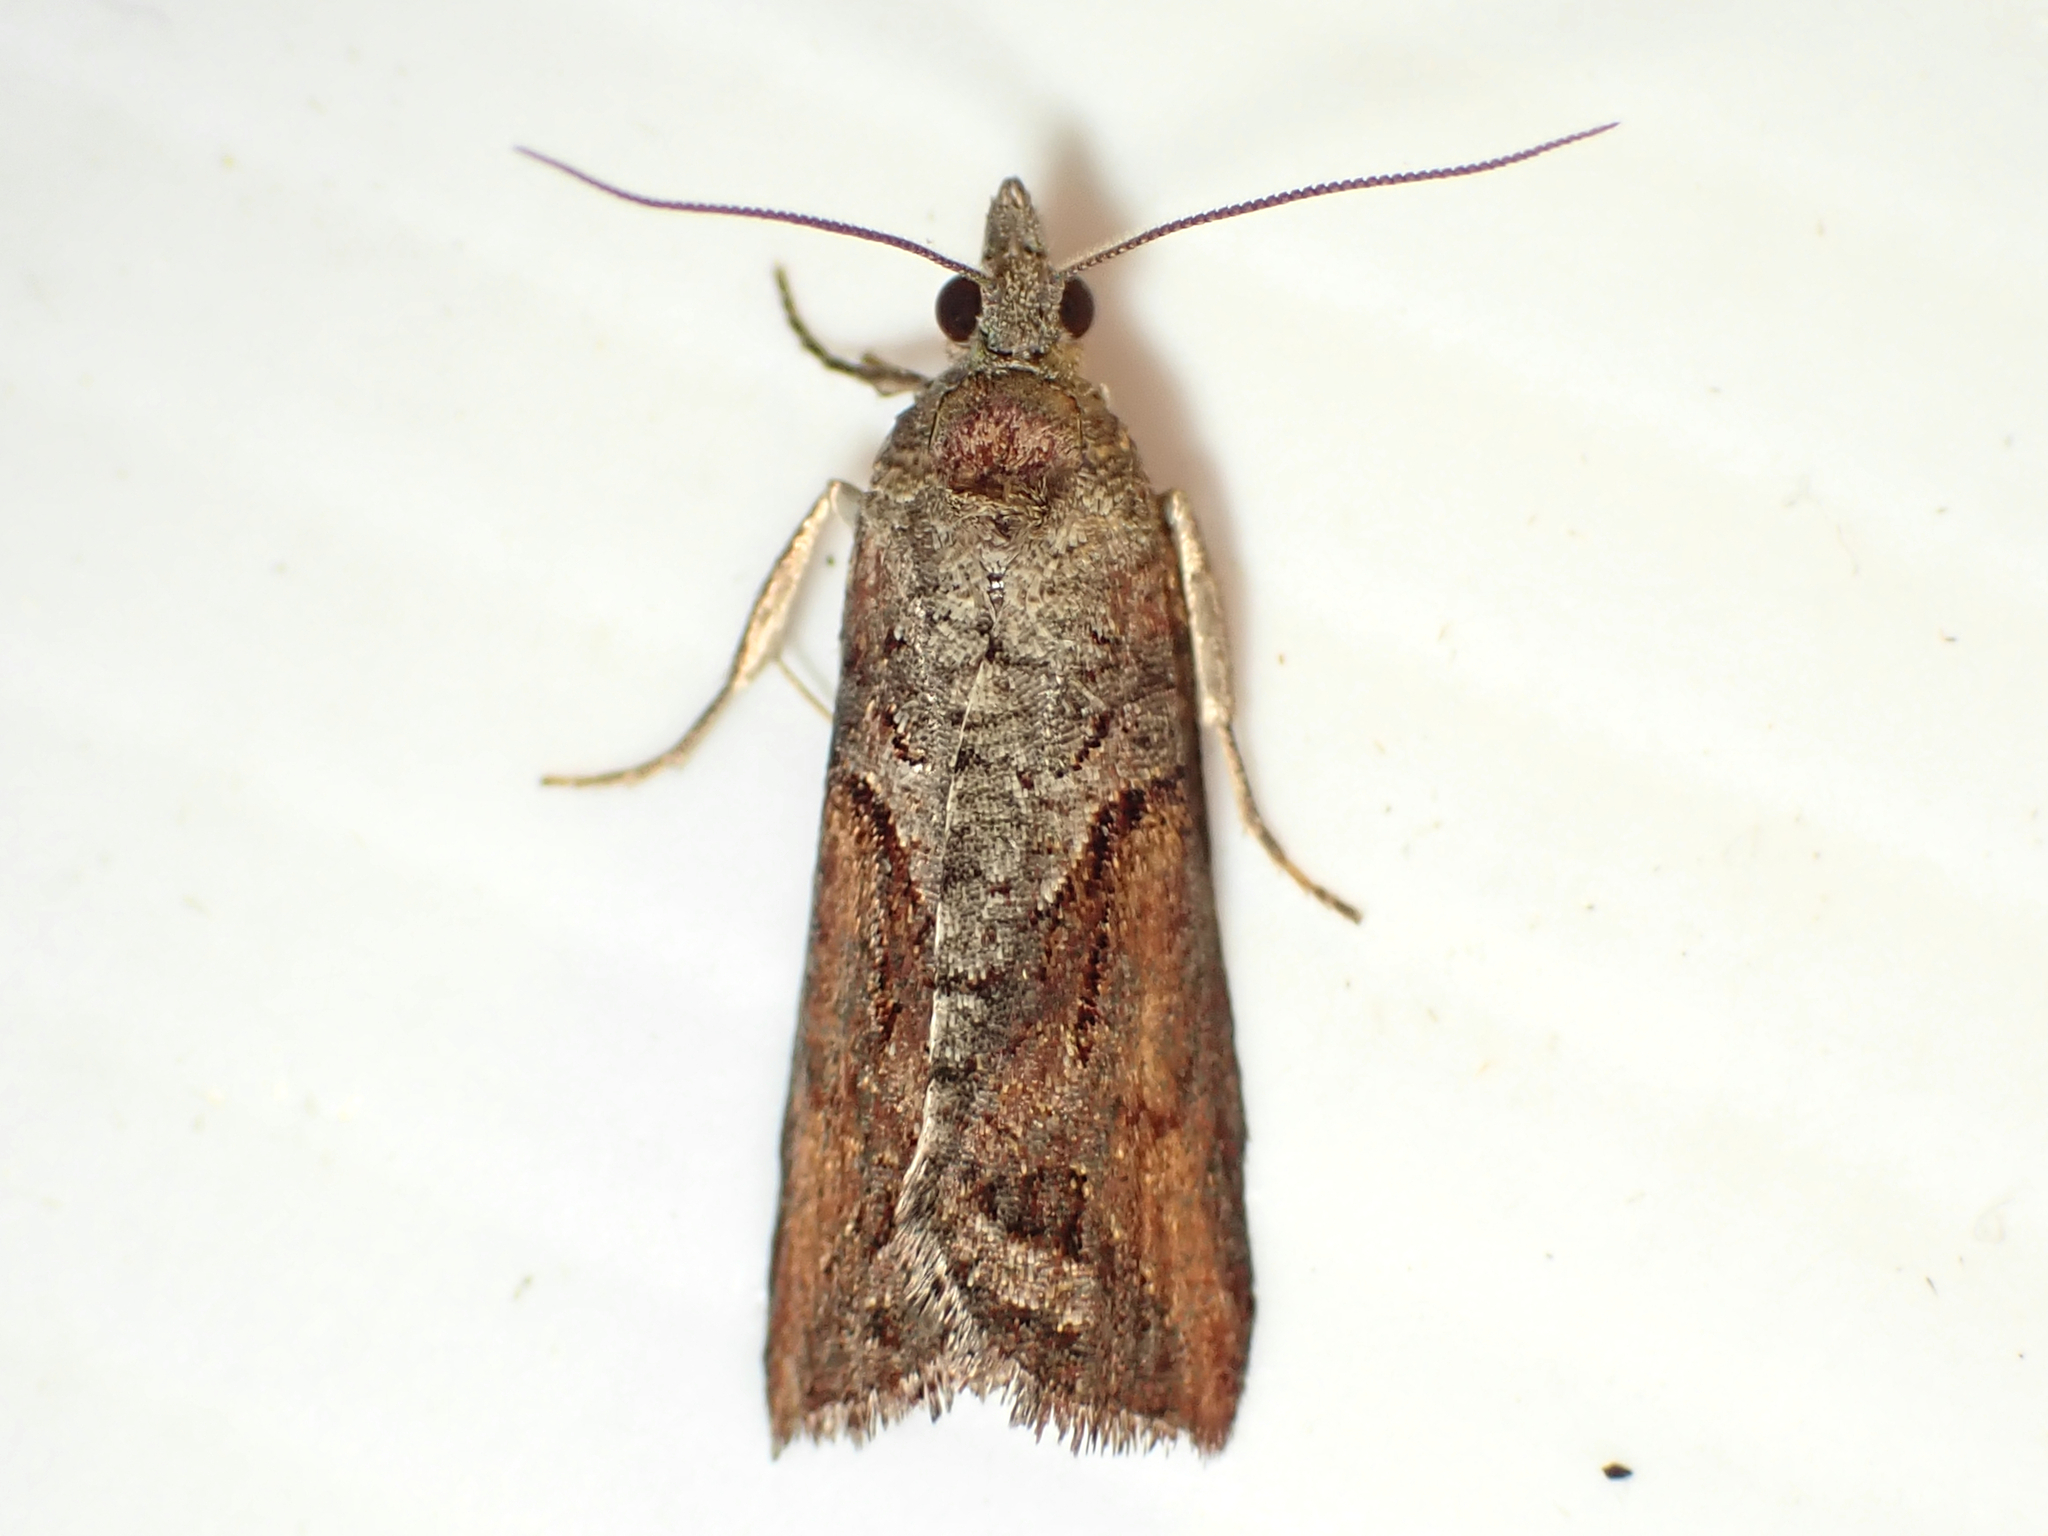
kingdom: Animalia
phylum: Arthropoda
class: Insecta
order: Lepidoptera
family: Tortricidae
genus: Harmologa
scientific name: Harmologa oblongana
